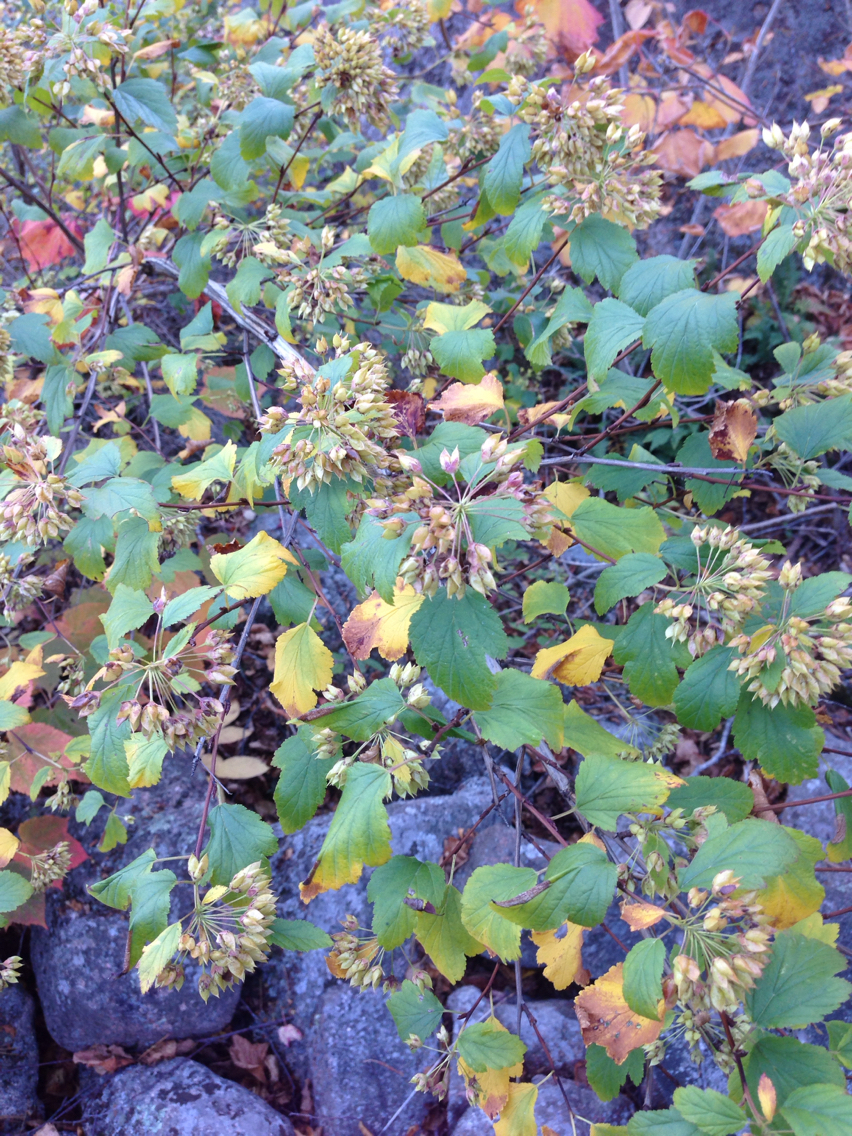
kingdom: Plantae
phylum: Tracheophyta
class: Magnoliopsida
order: Rosales
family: Rosaceae
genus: Physocarpus
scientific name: Physocarpus opulifolius
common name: Ninebark
